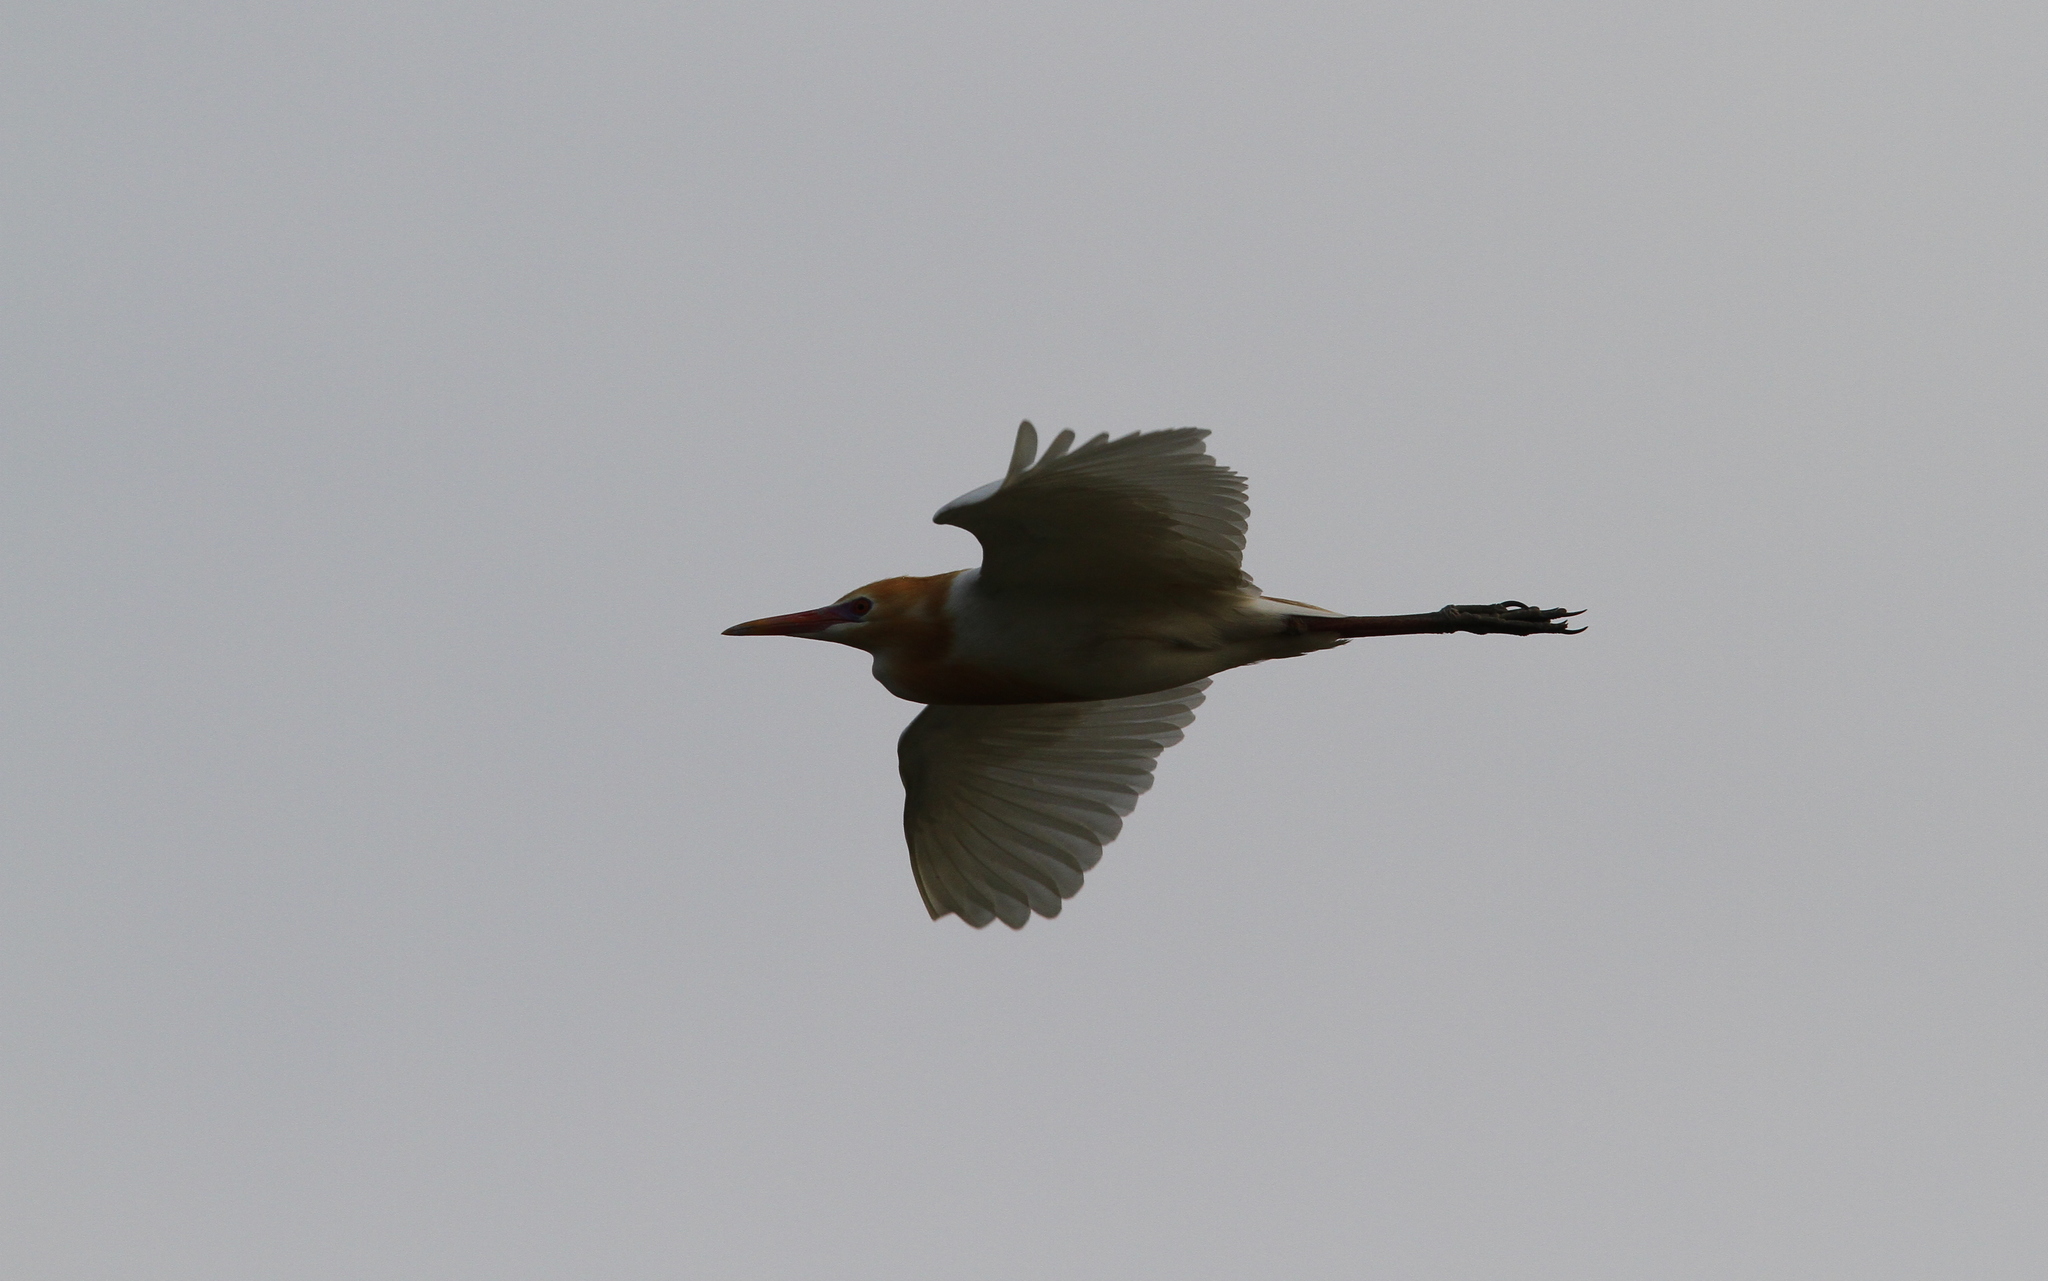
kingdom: Animalia
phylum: Chordata
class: Aves
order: Pelecaniformes
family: Ardeidae
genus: Bubulcus
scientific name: Bubulcus coromandus
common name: Eastern cattle egret
